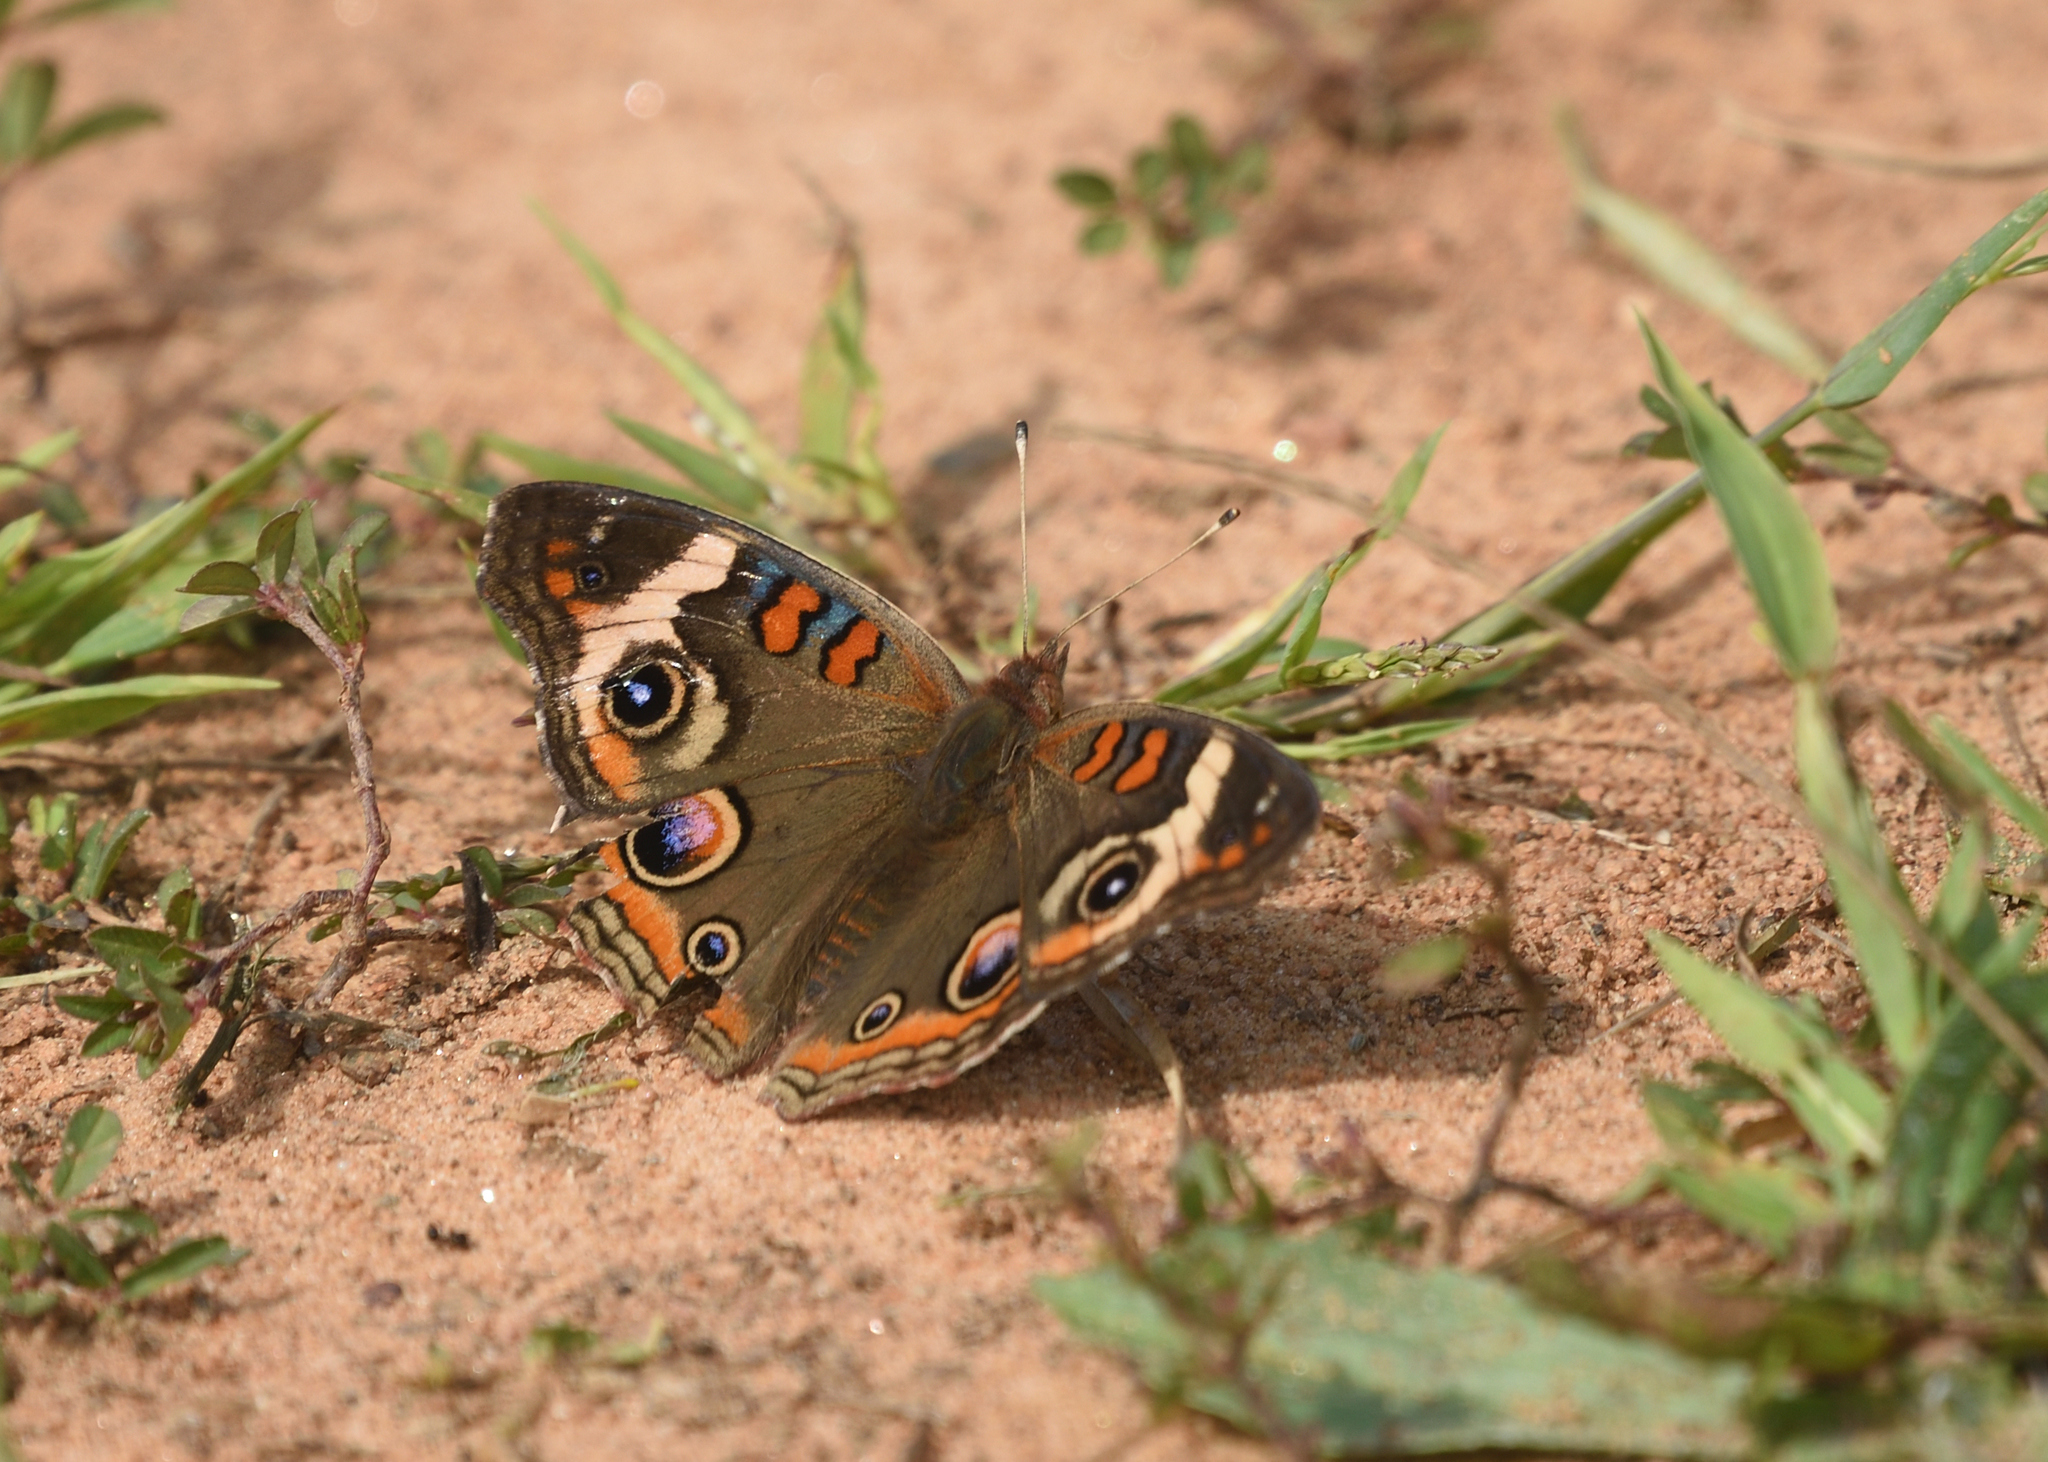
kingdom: Animalia
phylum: Arthropoda
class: Insecta
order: Lepidoptera
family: Nymphalidae
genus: Junonia
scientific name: Junonia coenia
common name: Common buckeye
